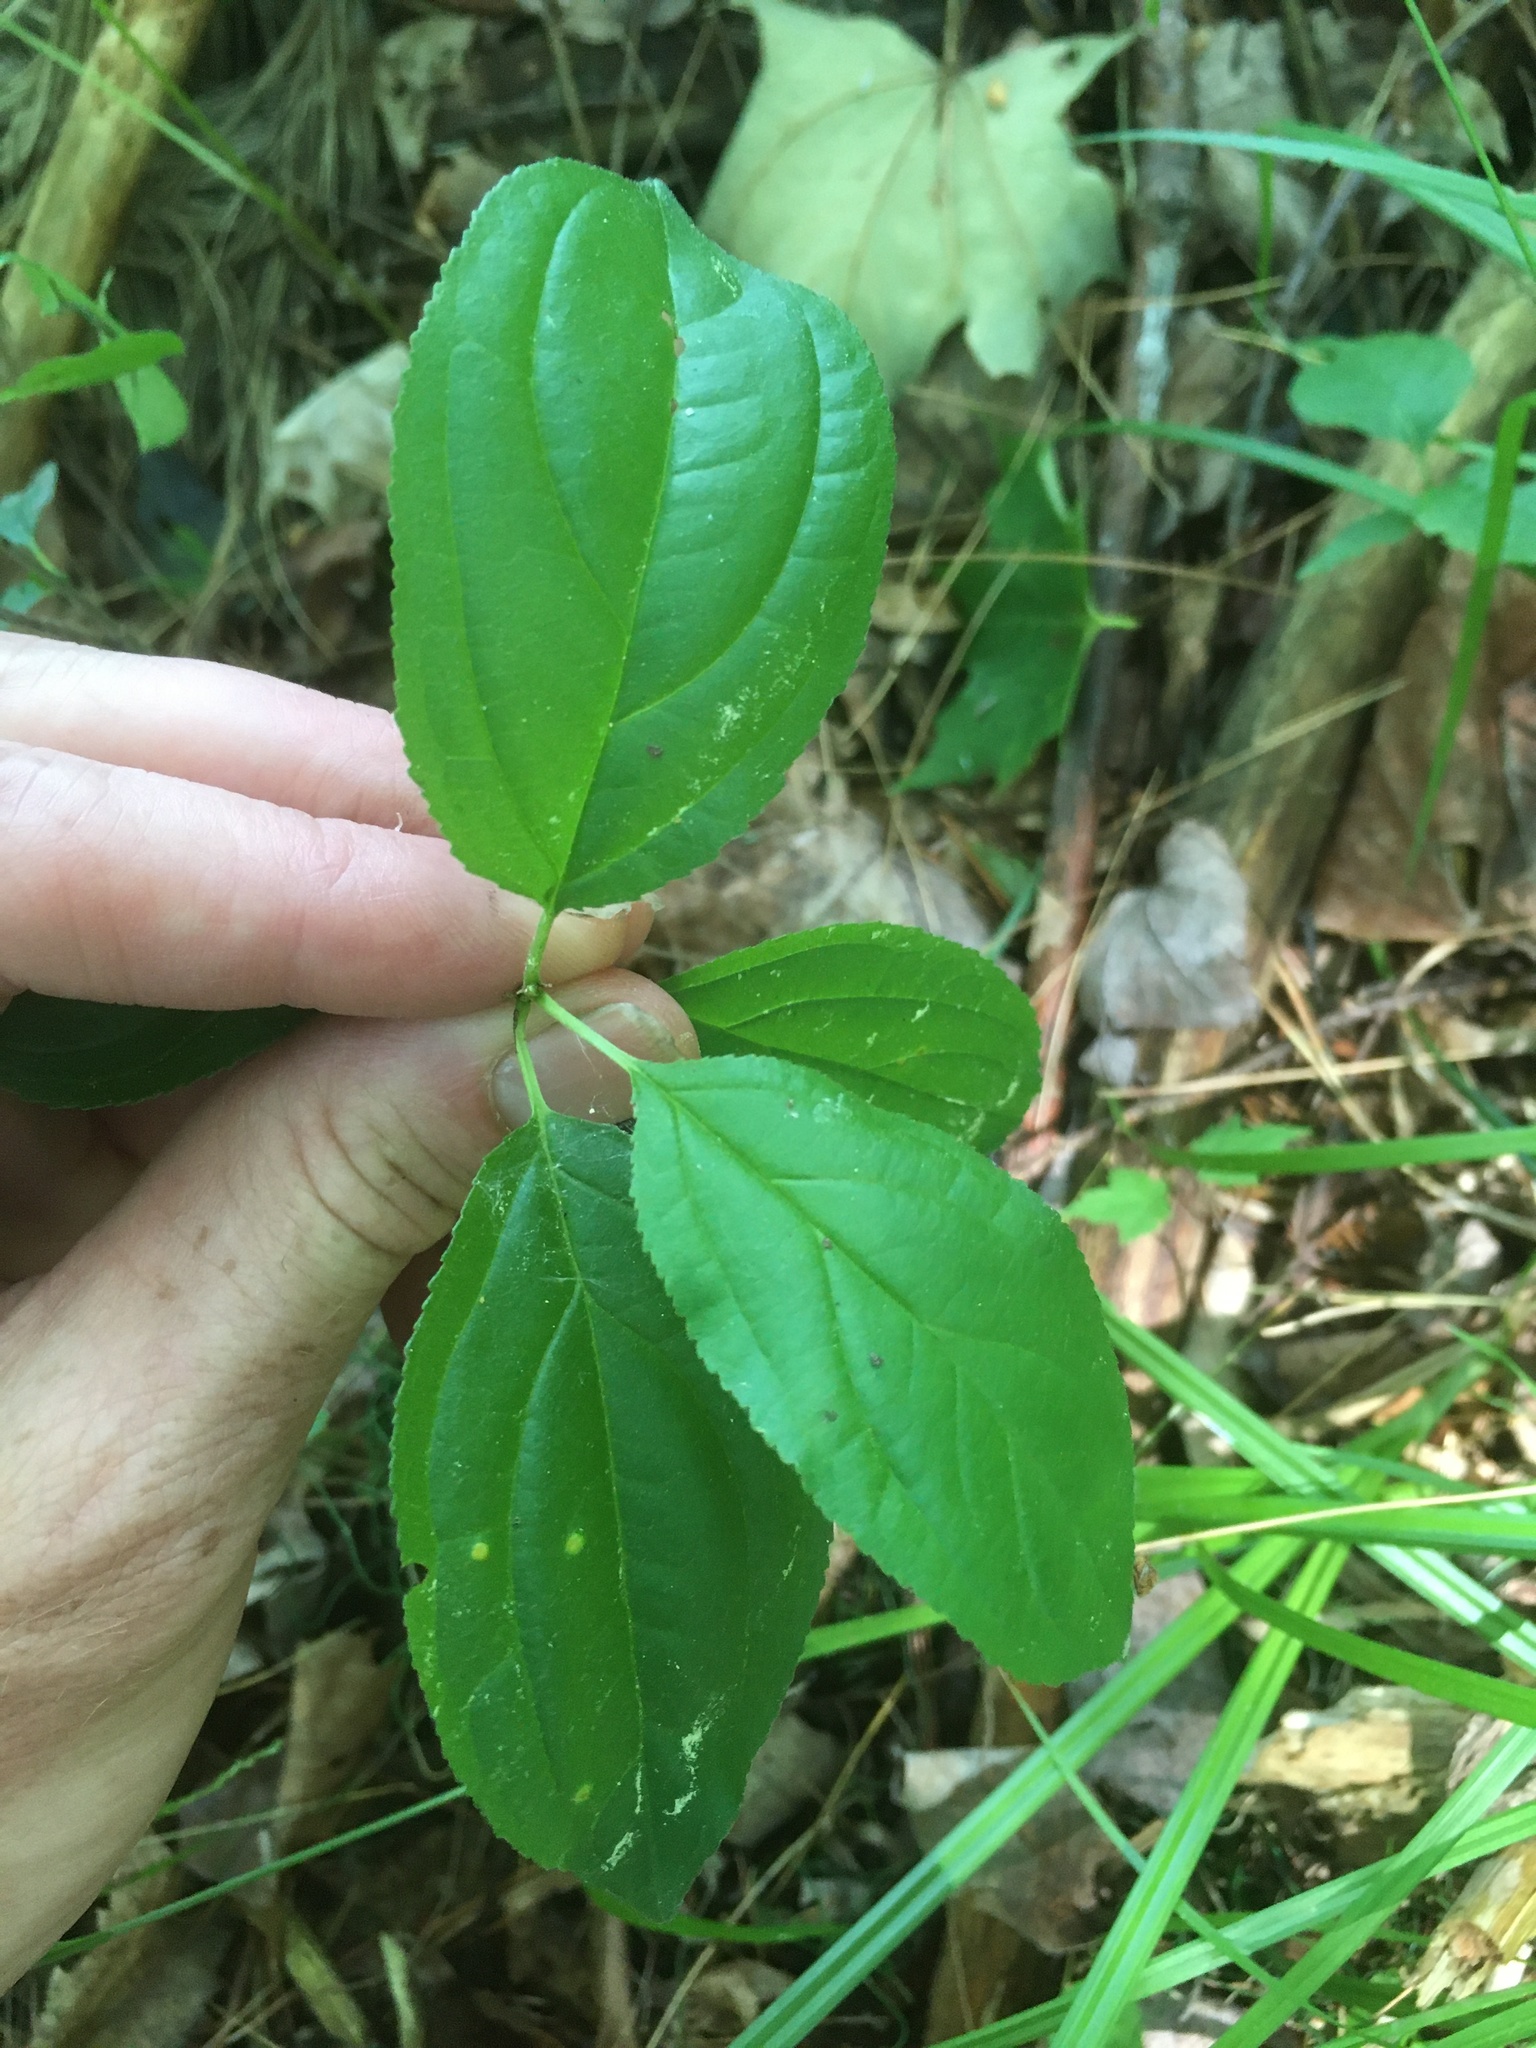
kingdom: Plantae
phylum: Tracheophyta
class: Magnoliopsida
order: Rosales
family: Rhamnaceae
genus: Rhamnus
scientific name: Rhamnus cathartica
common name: Common buckthorn
